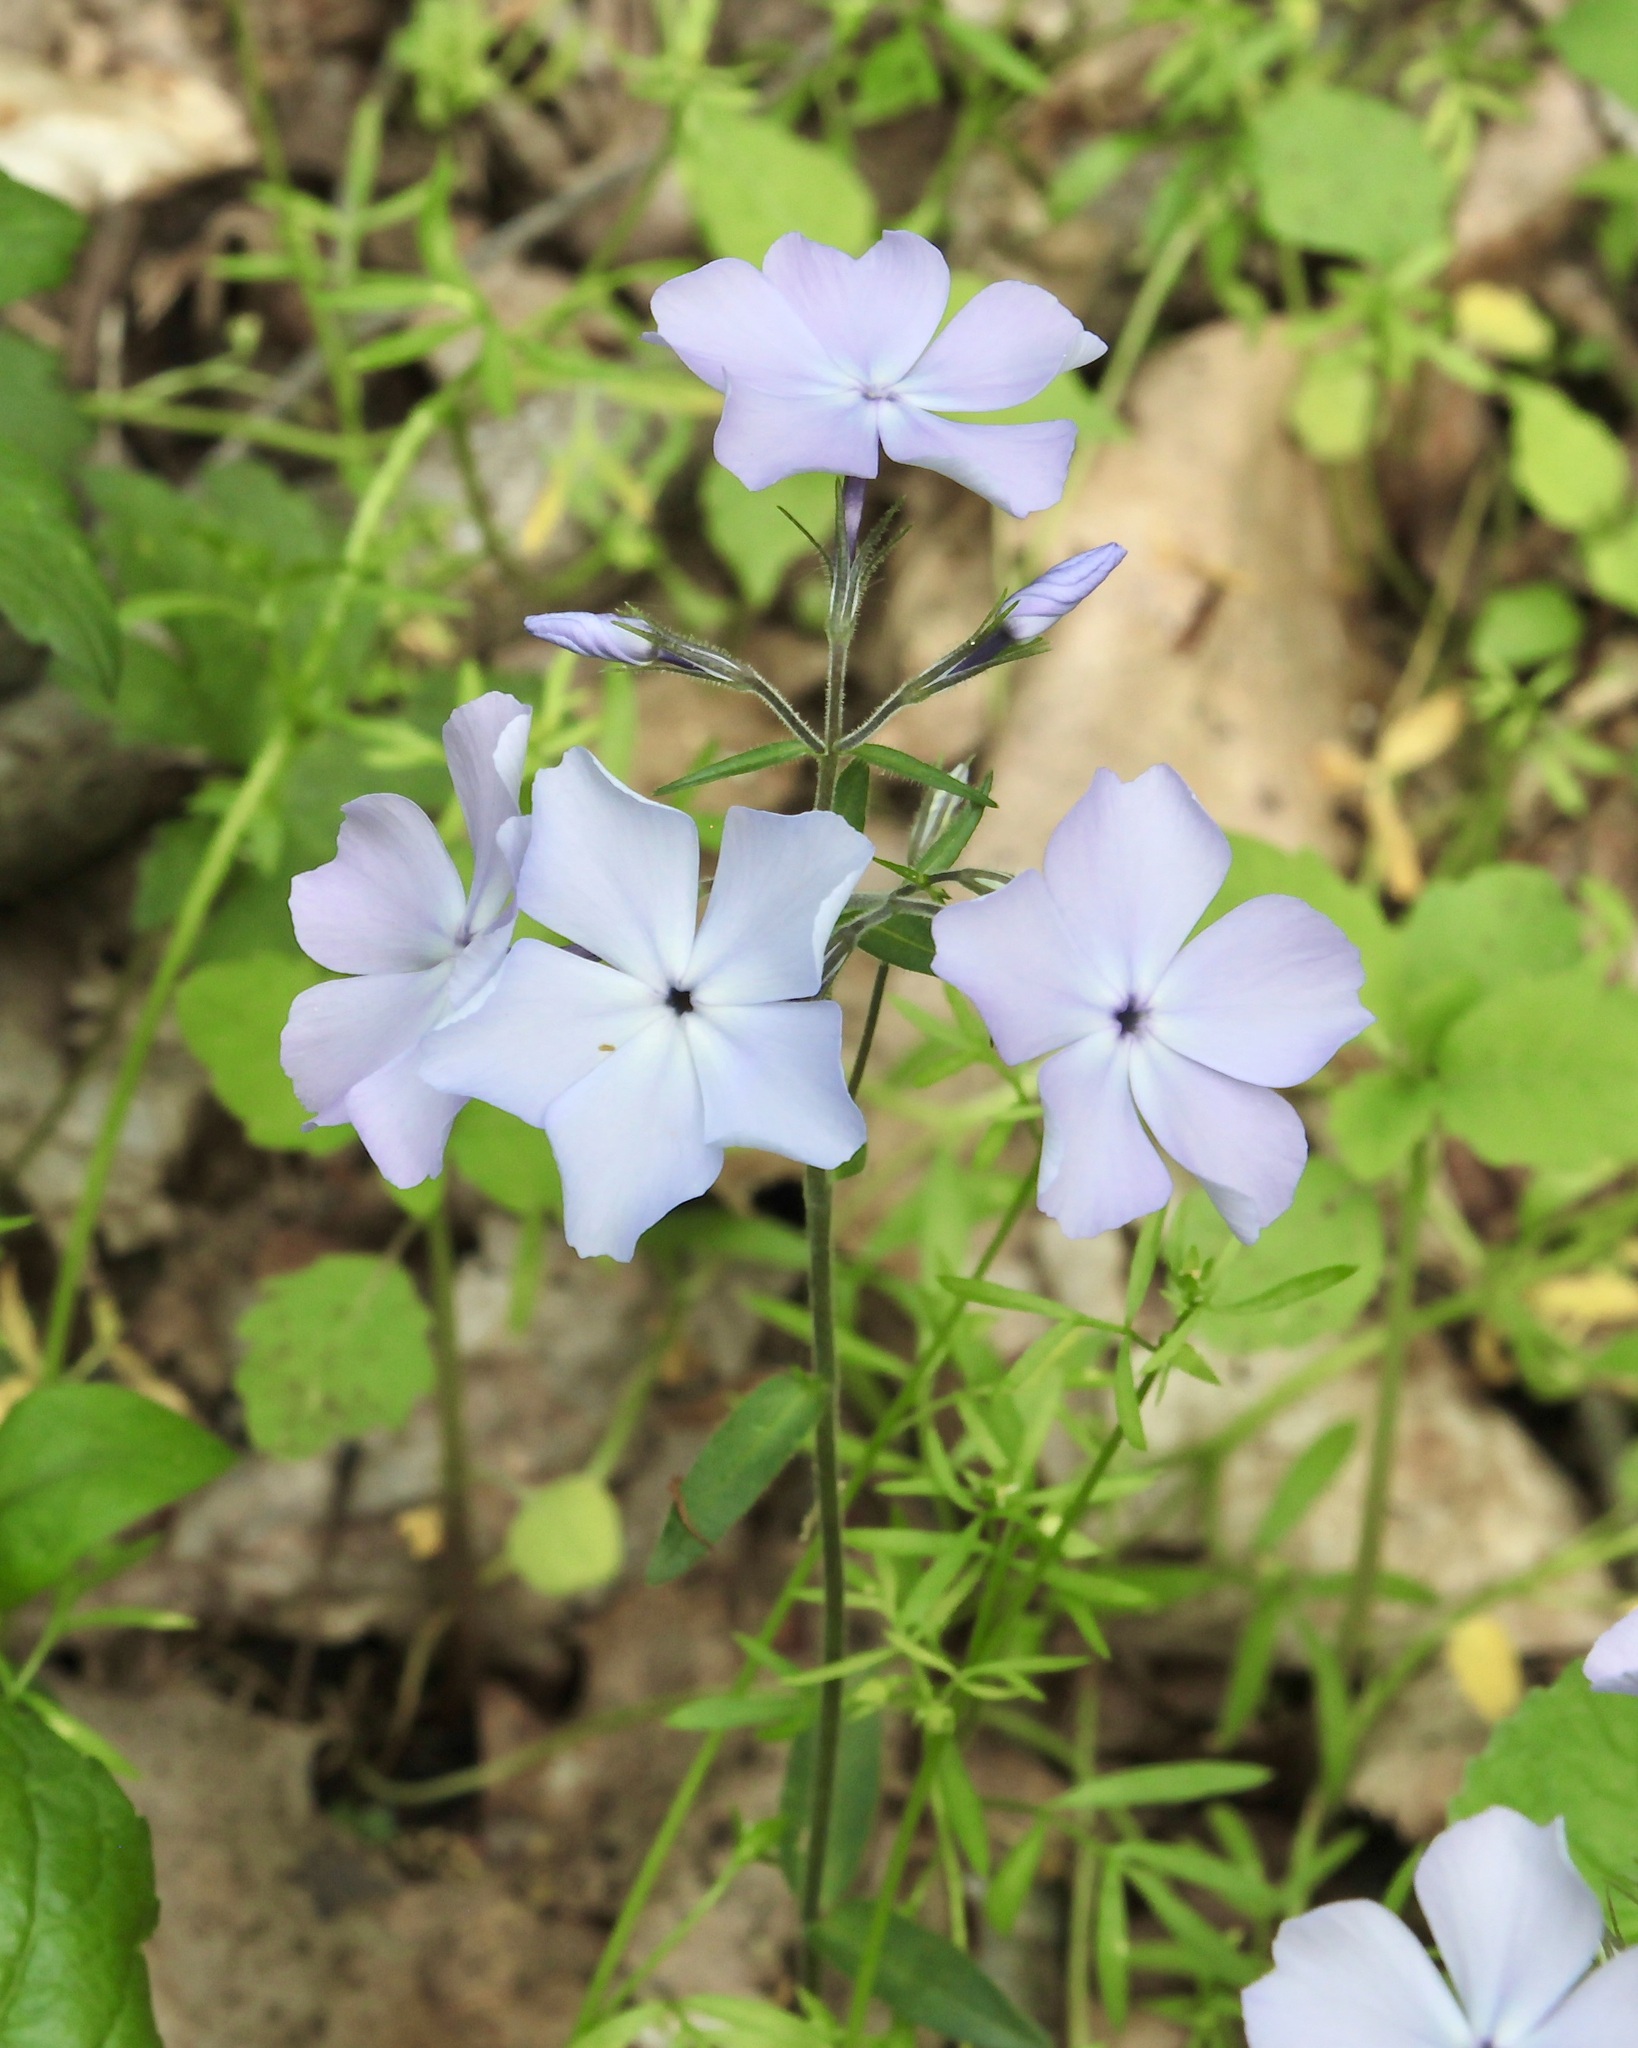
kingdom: Plantae
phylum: Tracheophyta
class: Magnoliopsida
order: Ericales
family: Polemoniaceae
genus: Phlox
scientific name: Phlox divaricata
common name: Blue phlox
